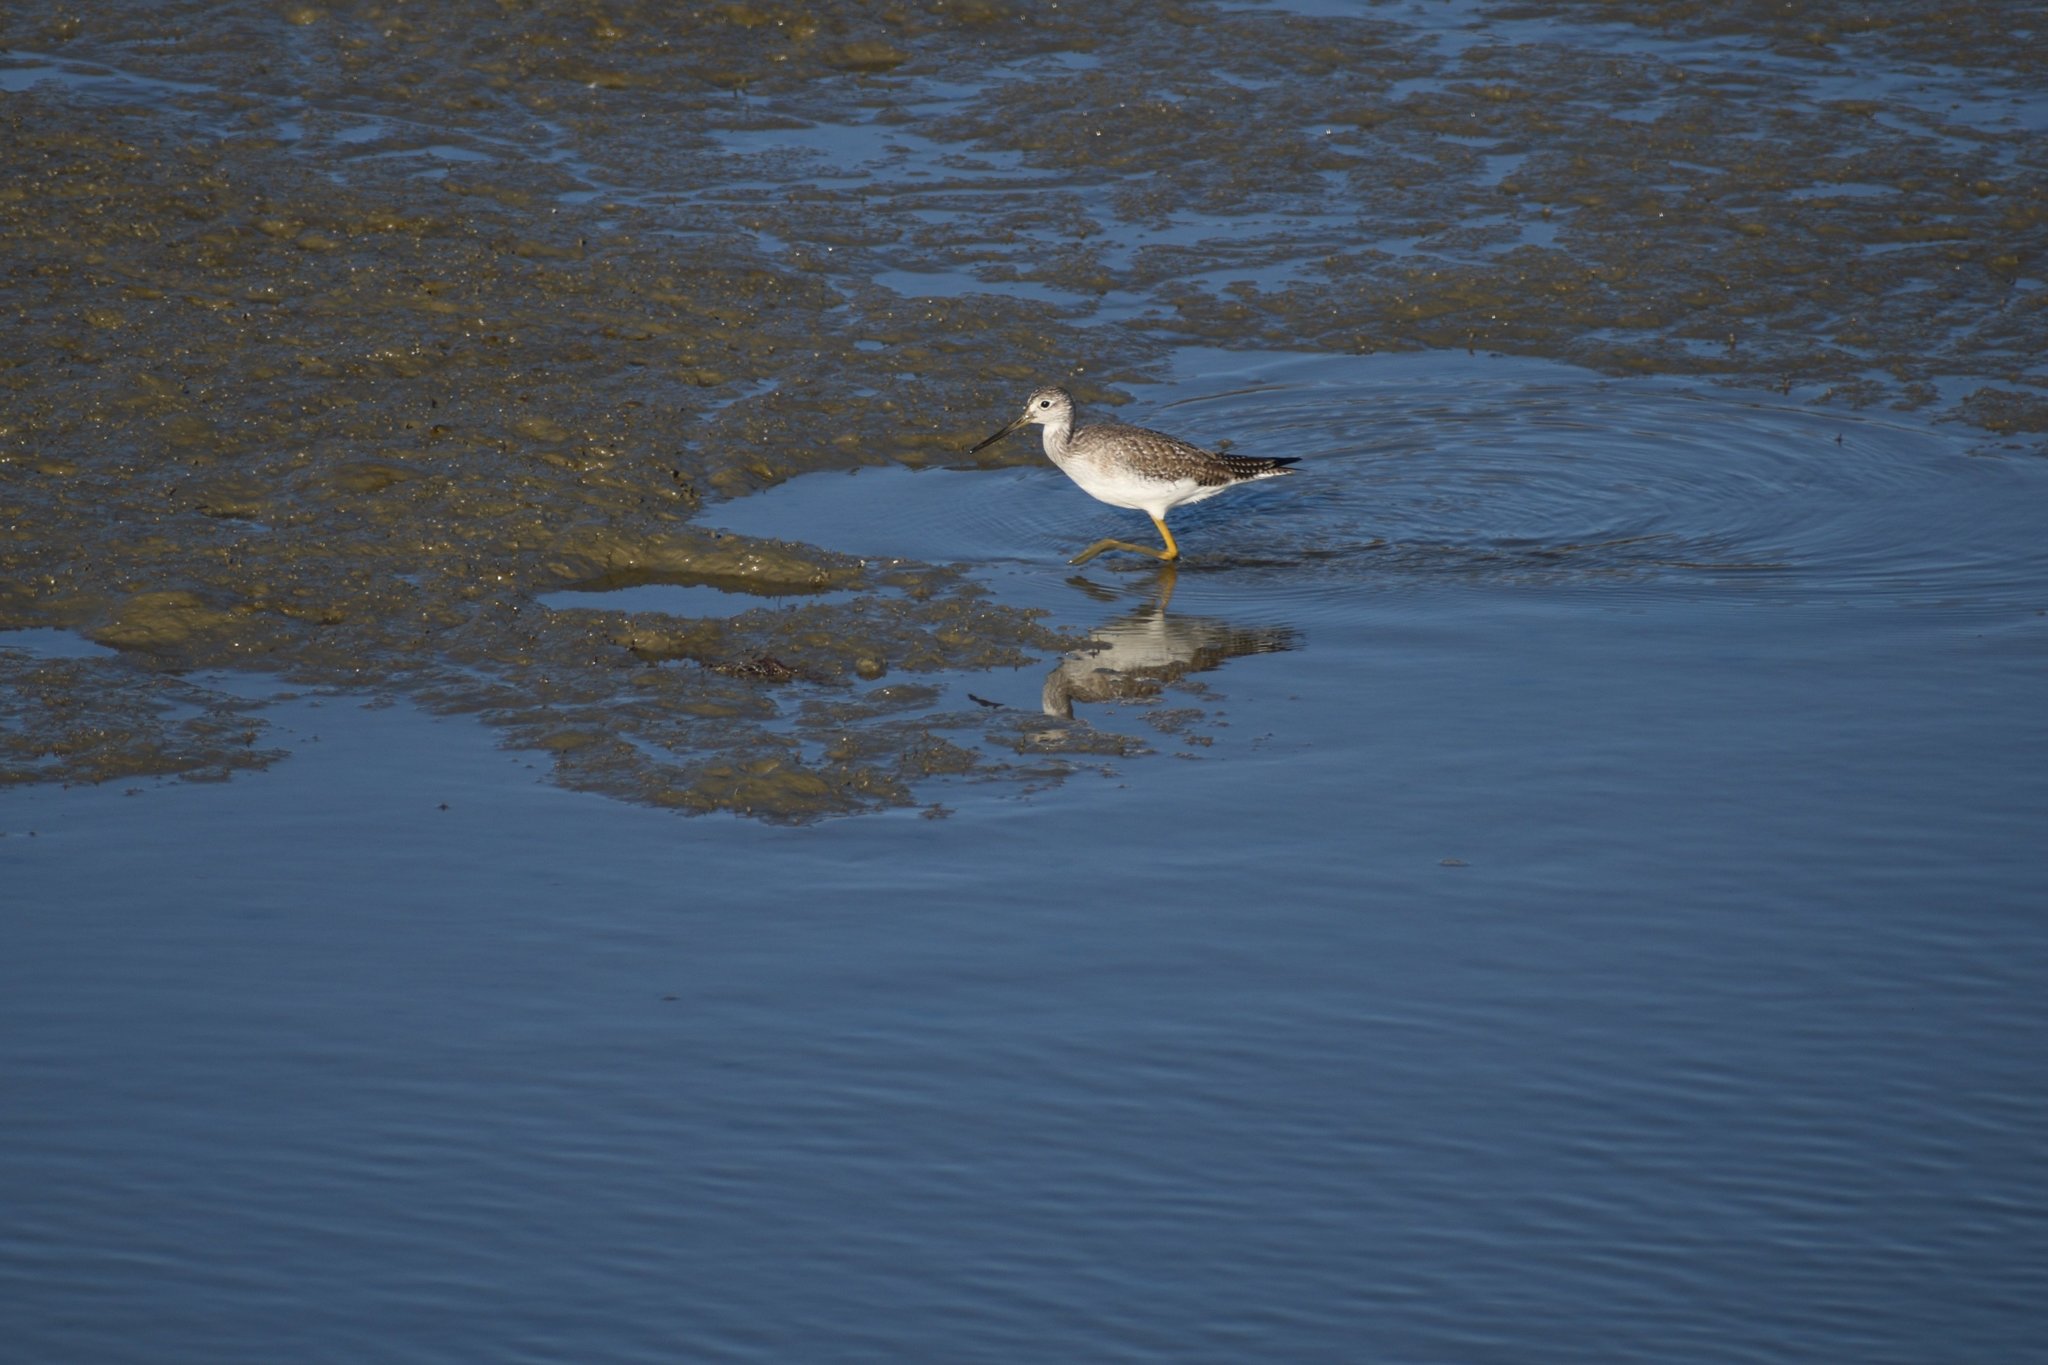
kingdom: Animalia
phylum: Chordata
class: Aves
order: Charadriiformes
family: Scolopacidae
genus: Tringa
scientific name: Tringa melanoleuca
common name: Greater yellowlegs
